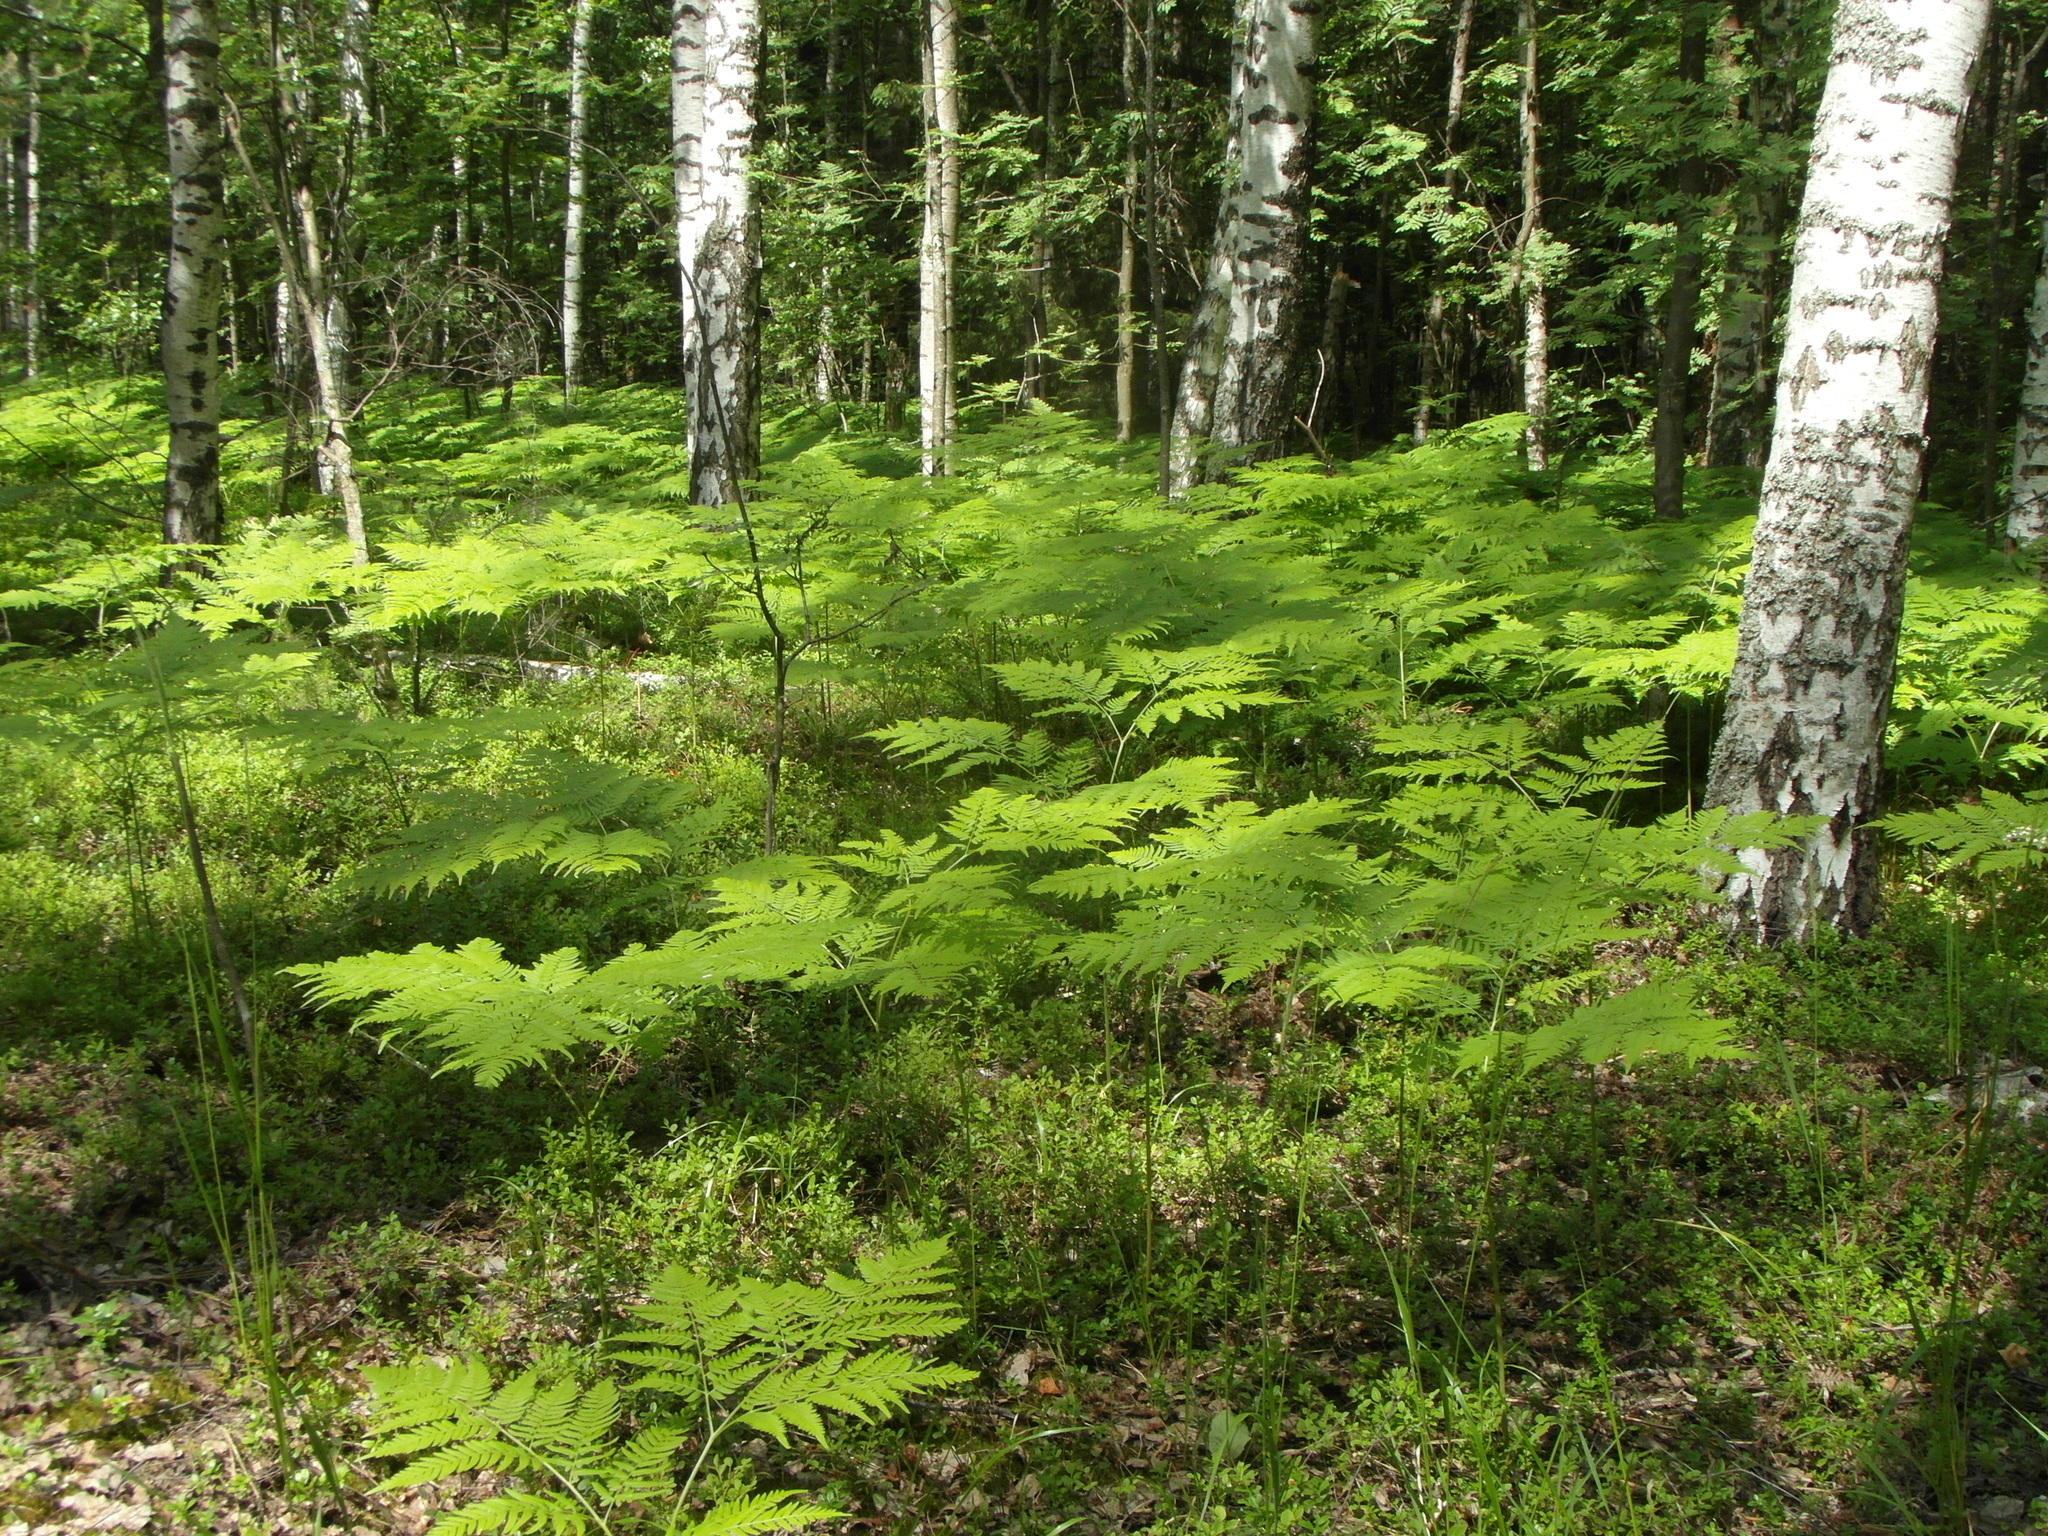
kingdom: Plantae
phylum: Tracheophyta
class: Polypodiopsida
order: Polypodiales
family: Dennstaedtiaceae
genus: Pteridium
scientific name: Pteridium aquilinum
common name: Bracken
